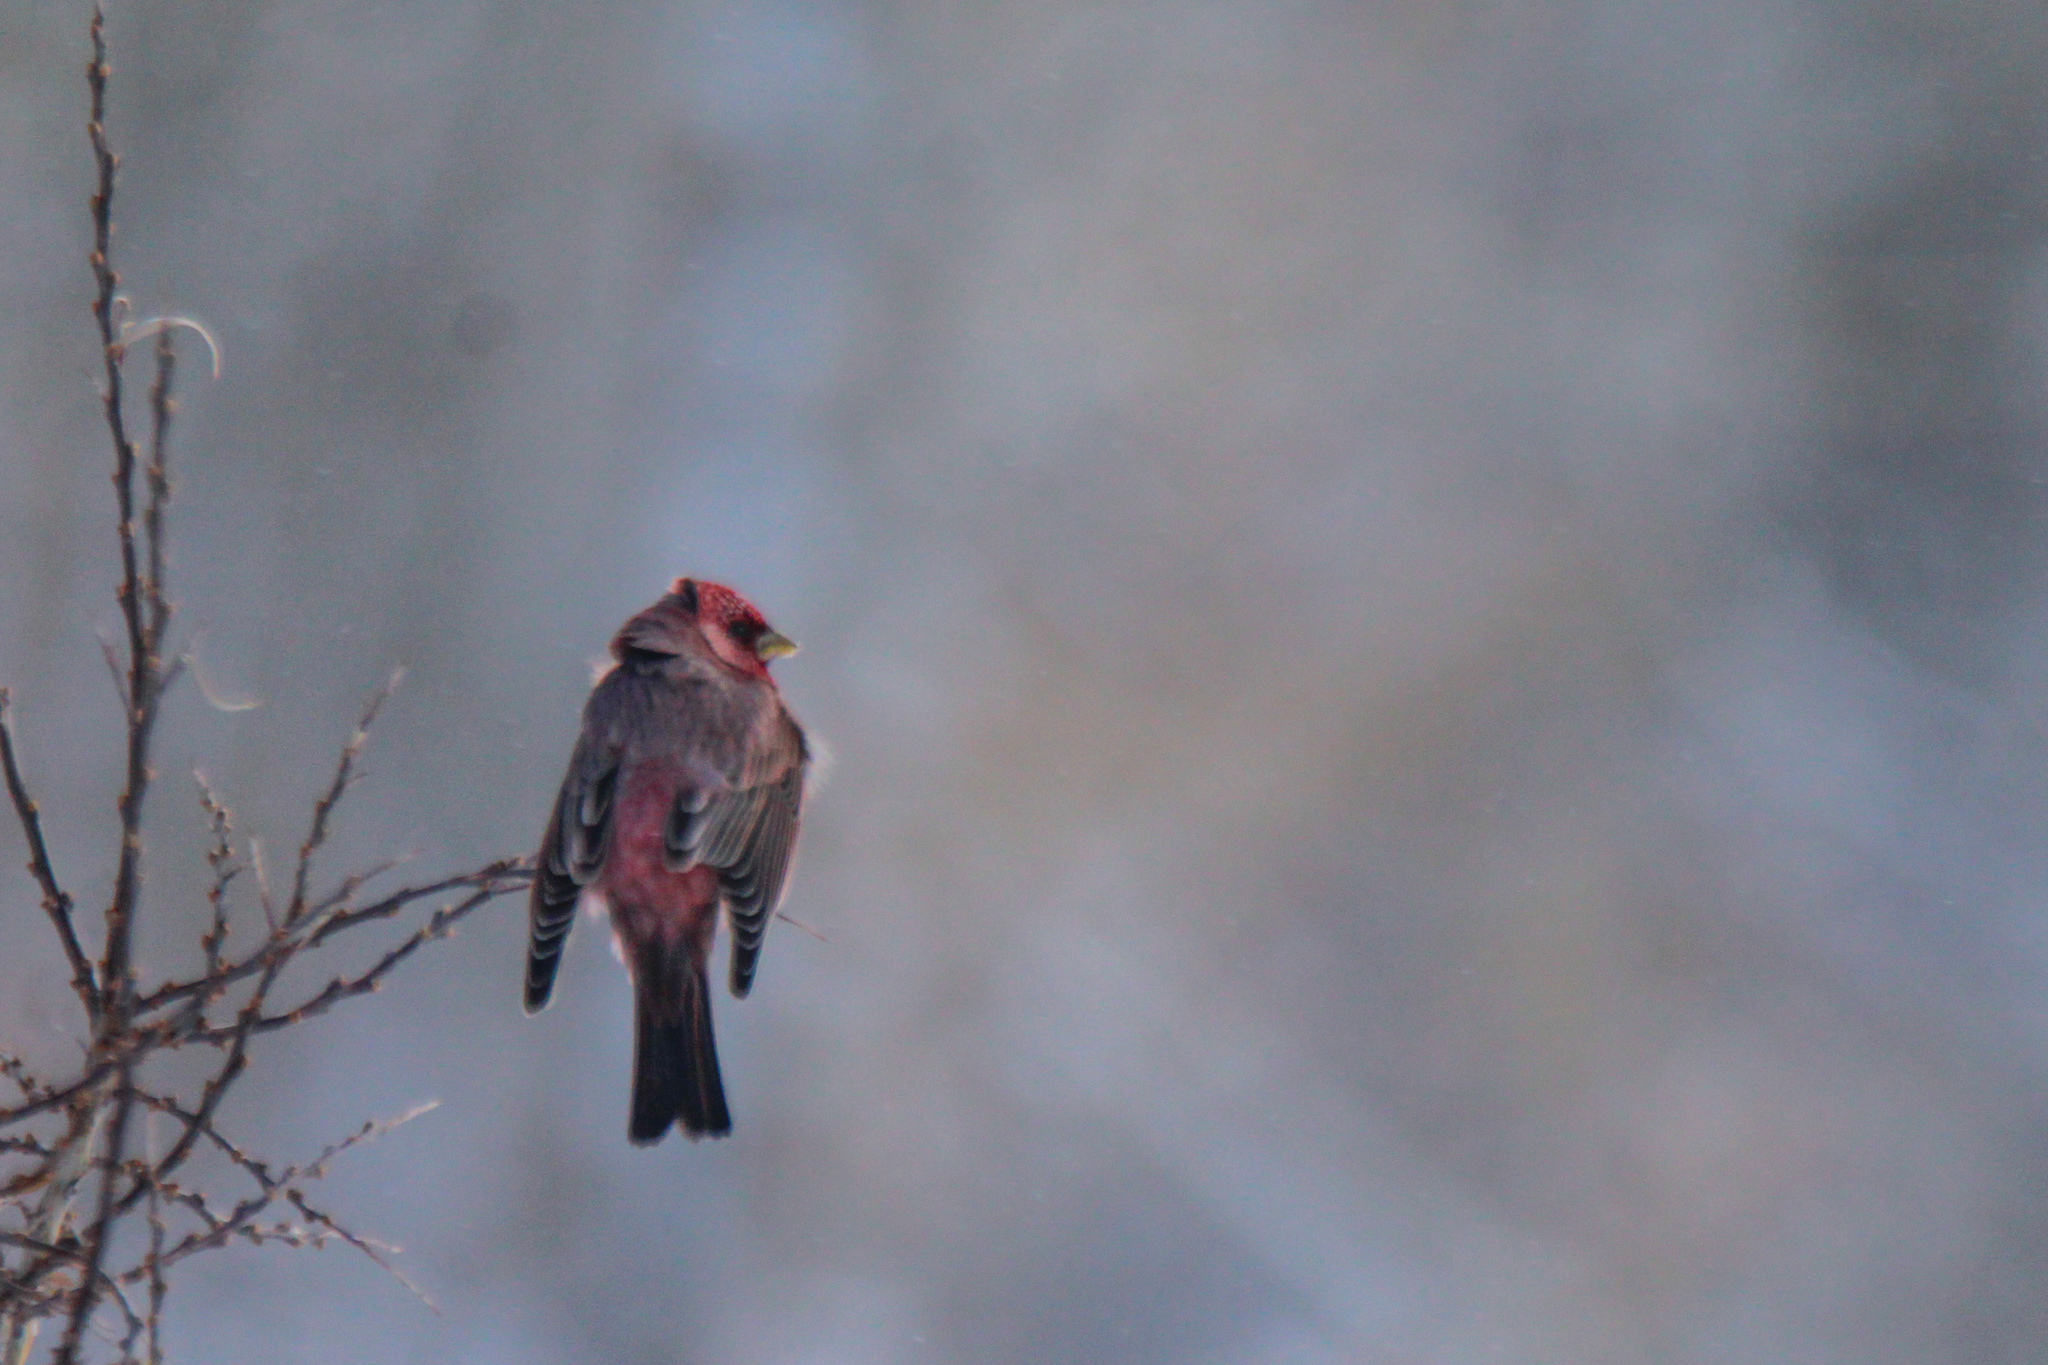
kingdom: Animalia
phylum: Chordata
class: Aves
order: Passeriformes
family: Fringillidae
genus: Carpodacus
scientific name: Carpodacus rubicilla
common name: Great rosefinch
